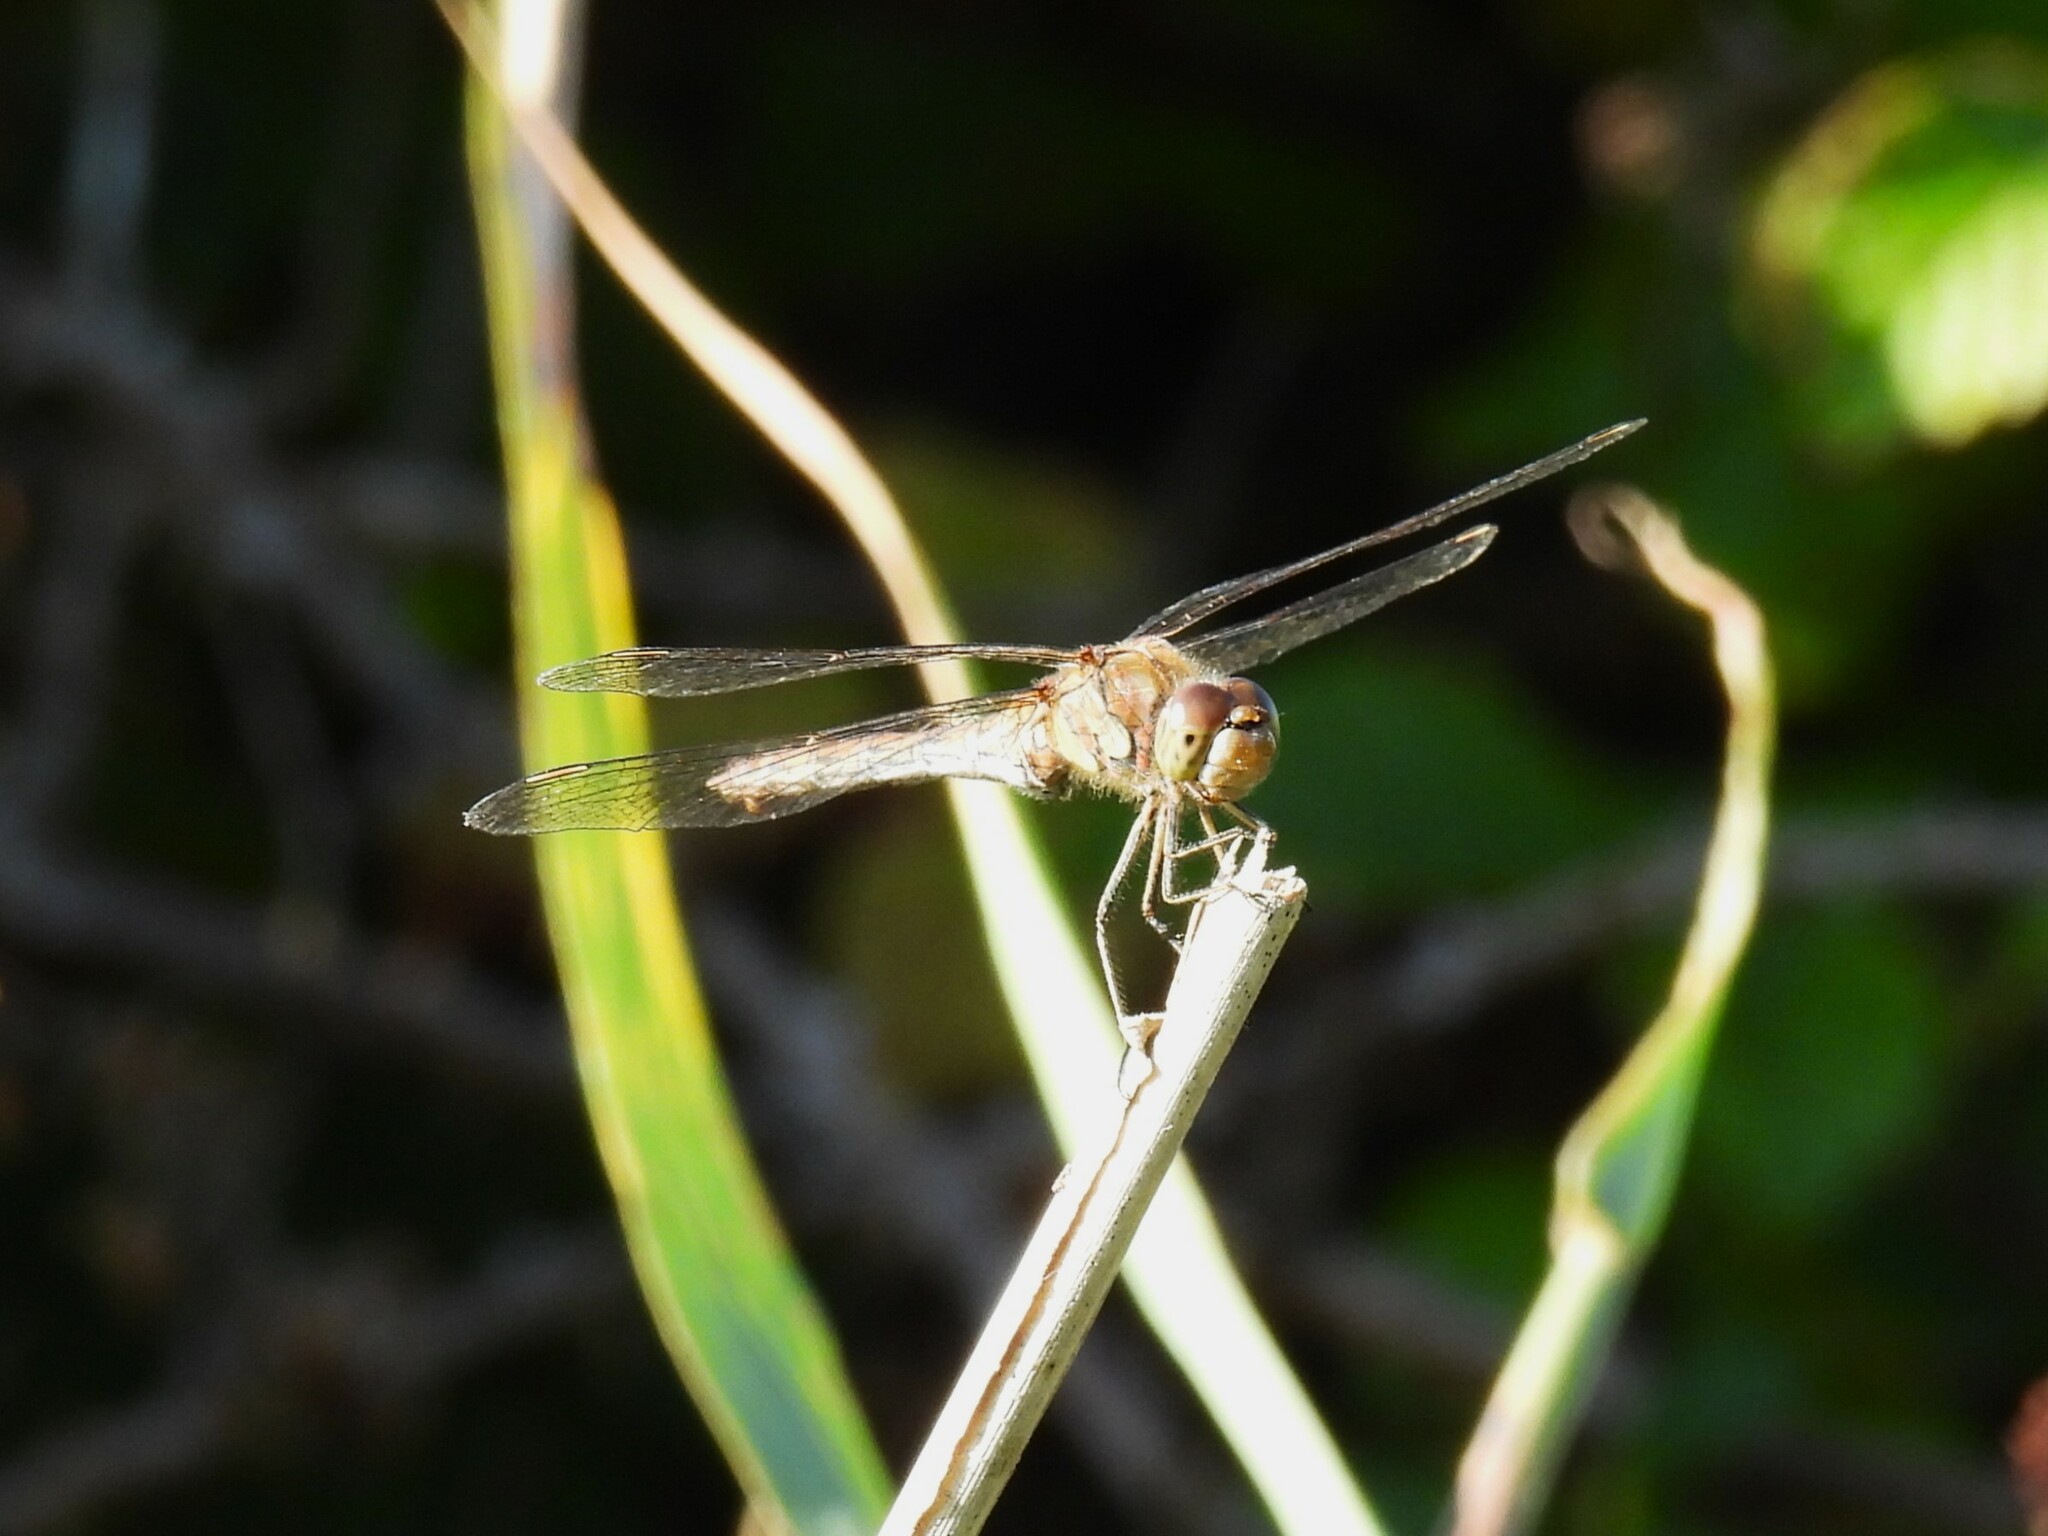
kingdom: Animalia
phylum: Arthropoda
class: Insecta
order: Odonata
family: Libellulidae
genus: Sympetrum
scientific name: Sympetrum striolatum
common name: Common darter
